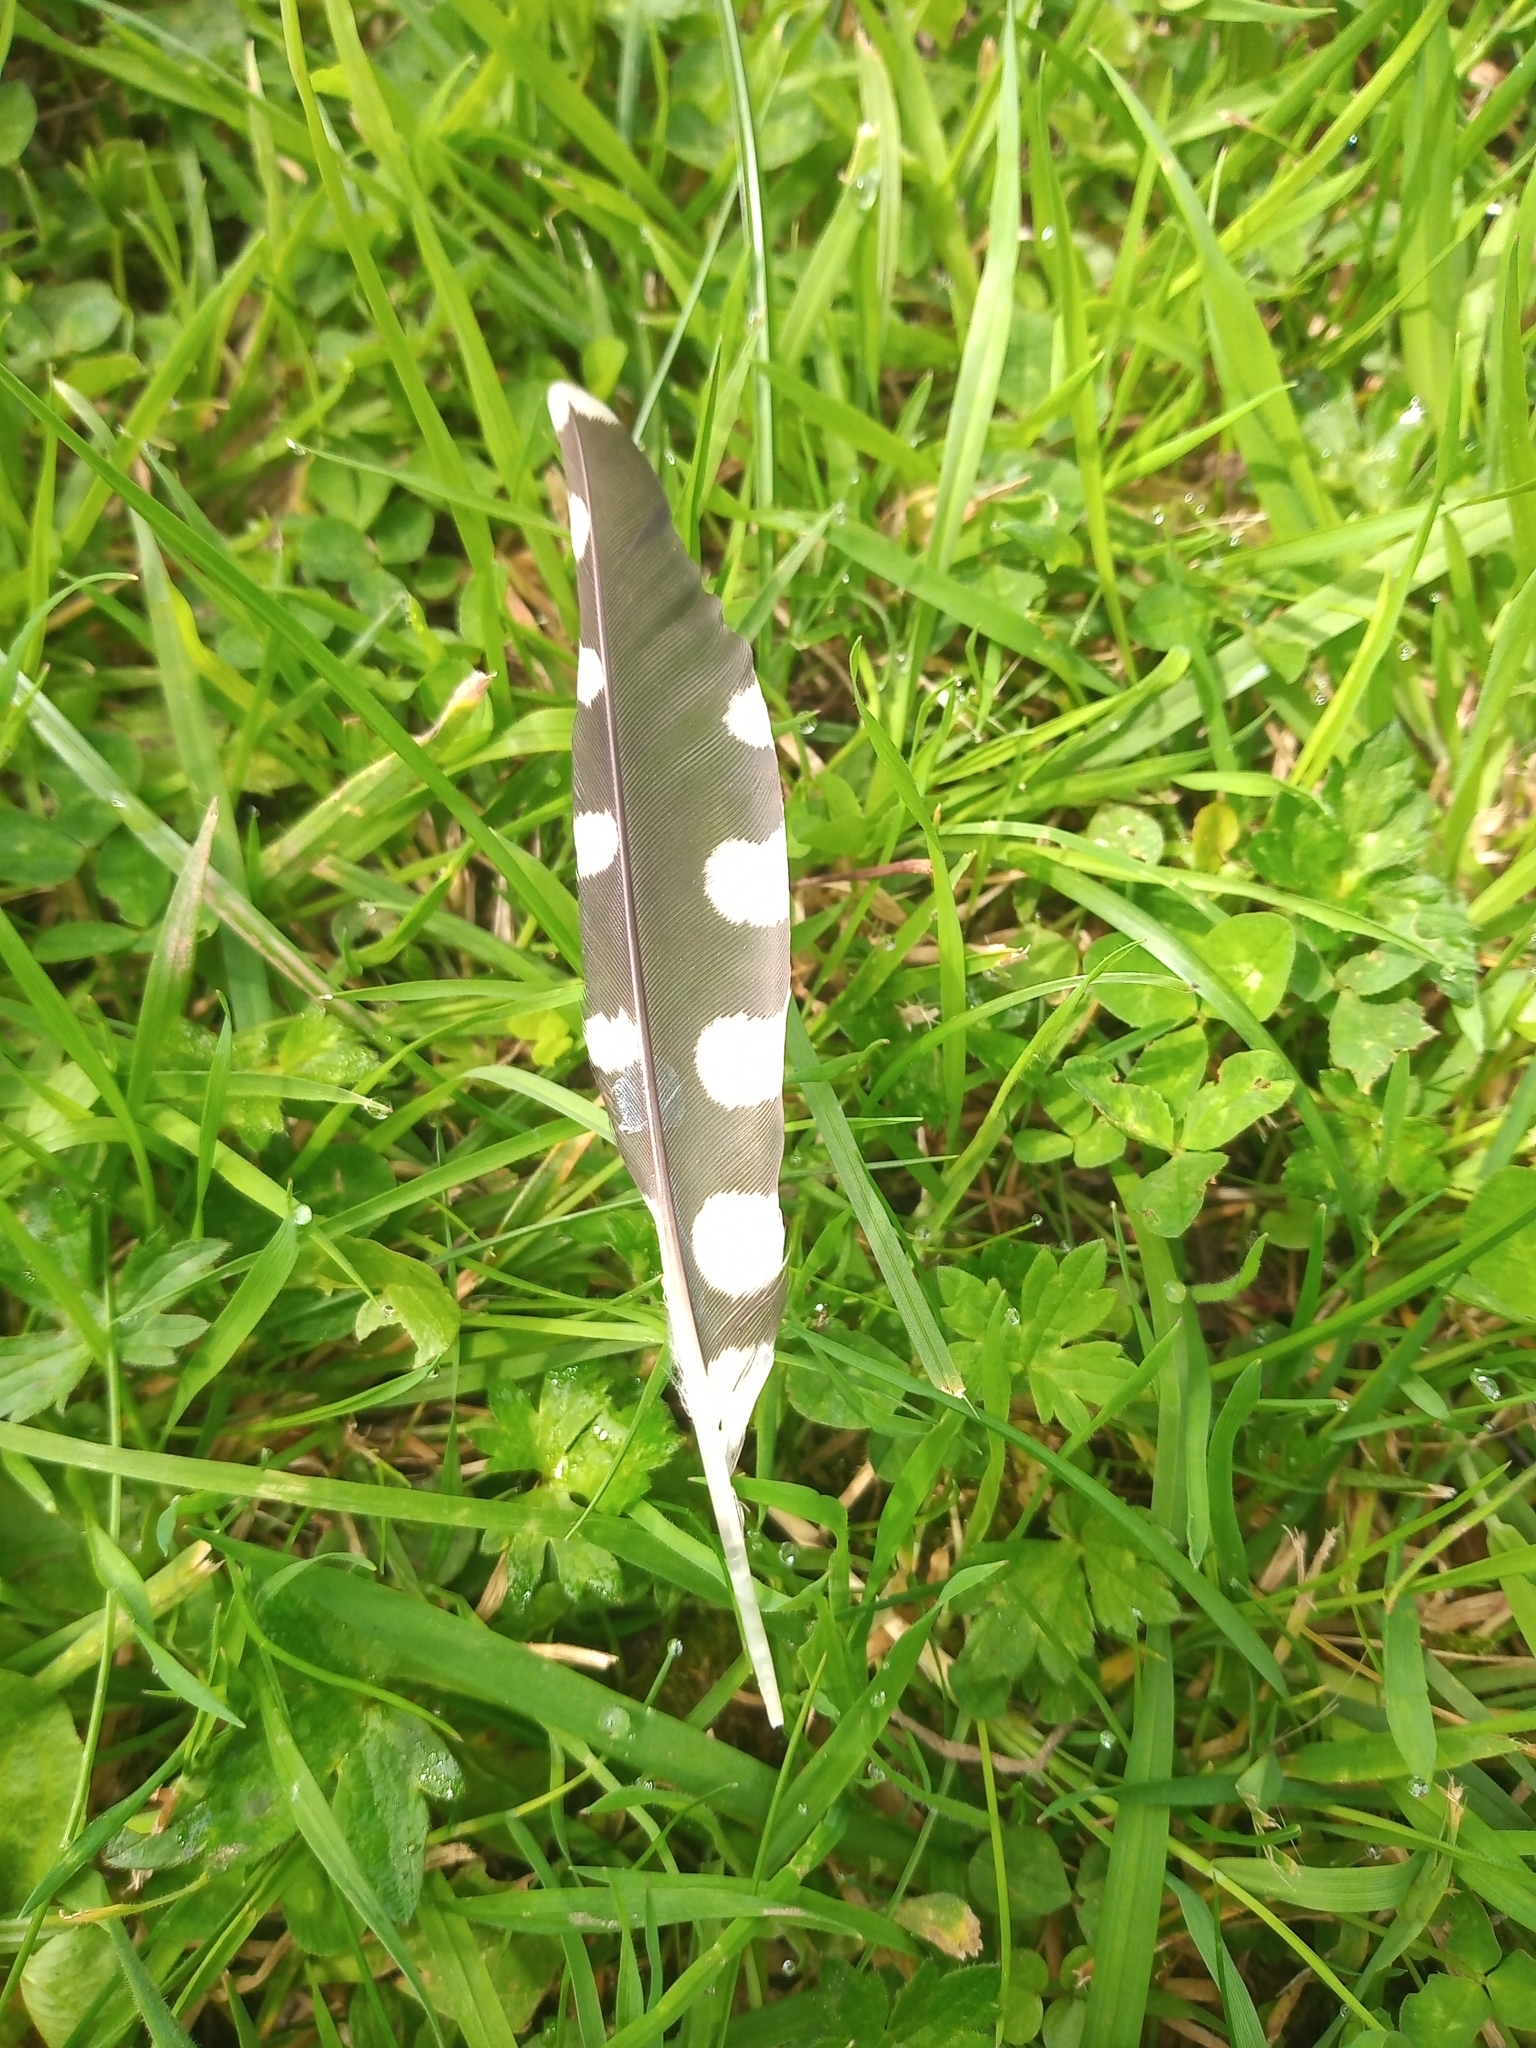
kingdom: Animalia
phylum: Chordata
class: Aves
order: Piciformes
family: Picidae
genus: Dendrocopos
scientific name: Dendrocopos major
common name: Great spotted woodpecker
